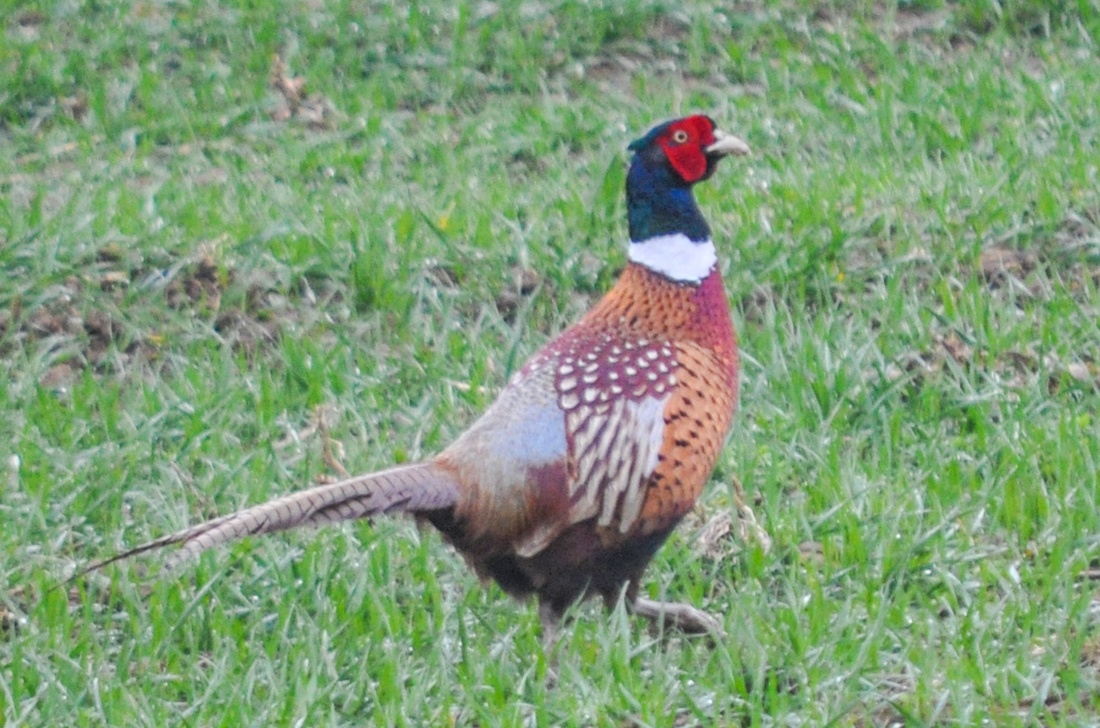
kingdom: Animalia
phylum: Chordata
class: Aves
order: Galliformes
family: Phasianidae
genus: Phasianus
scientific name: Phasianus colchicus
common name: Common pheasant
